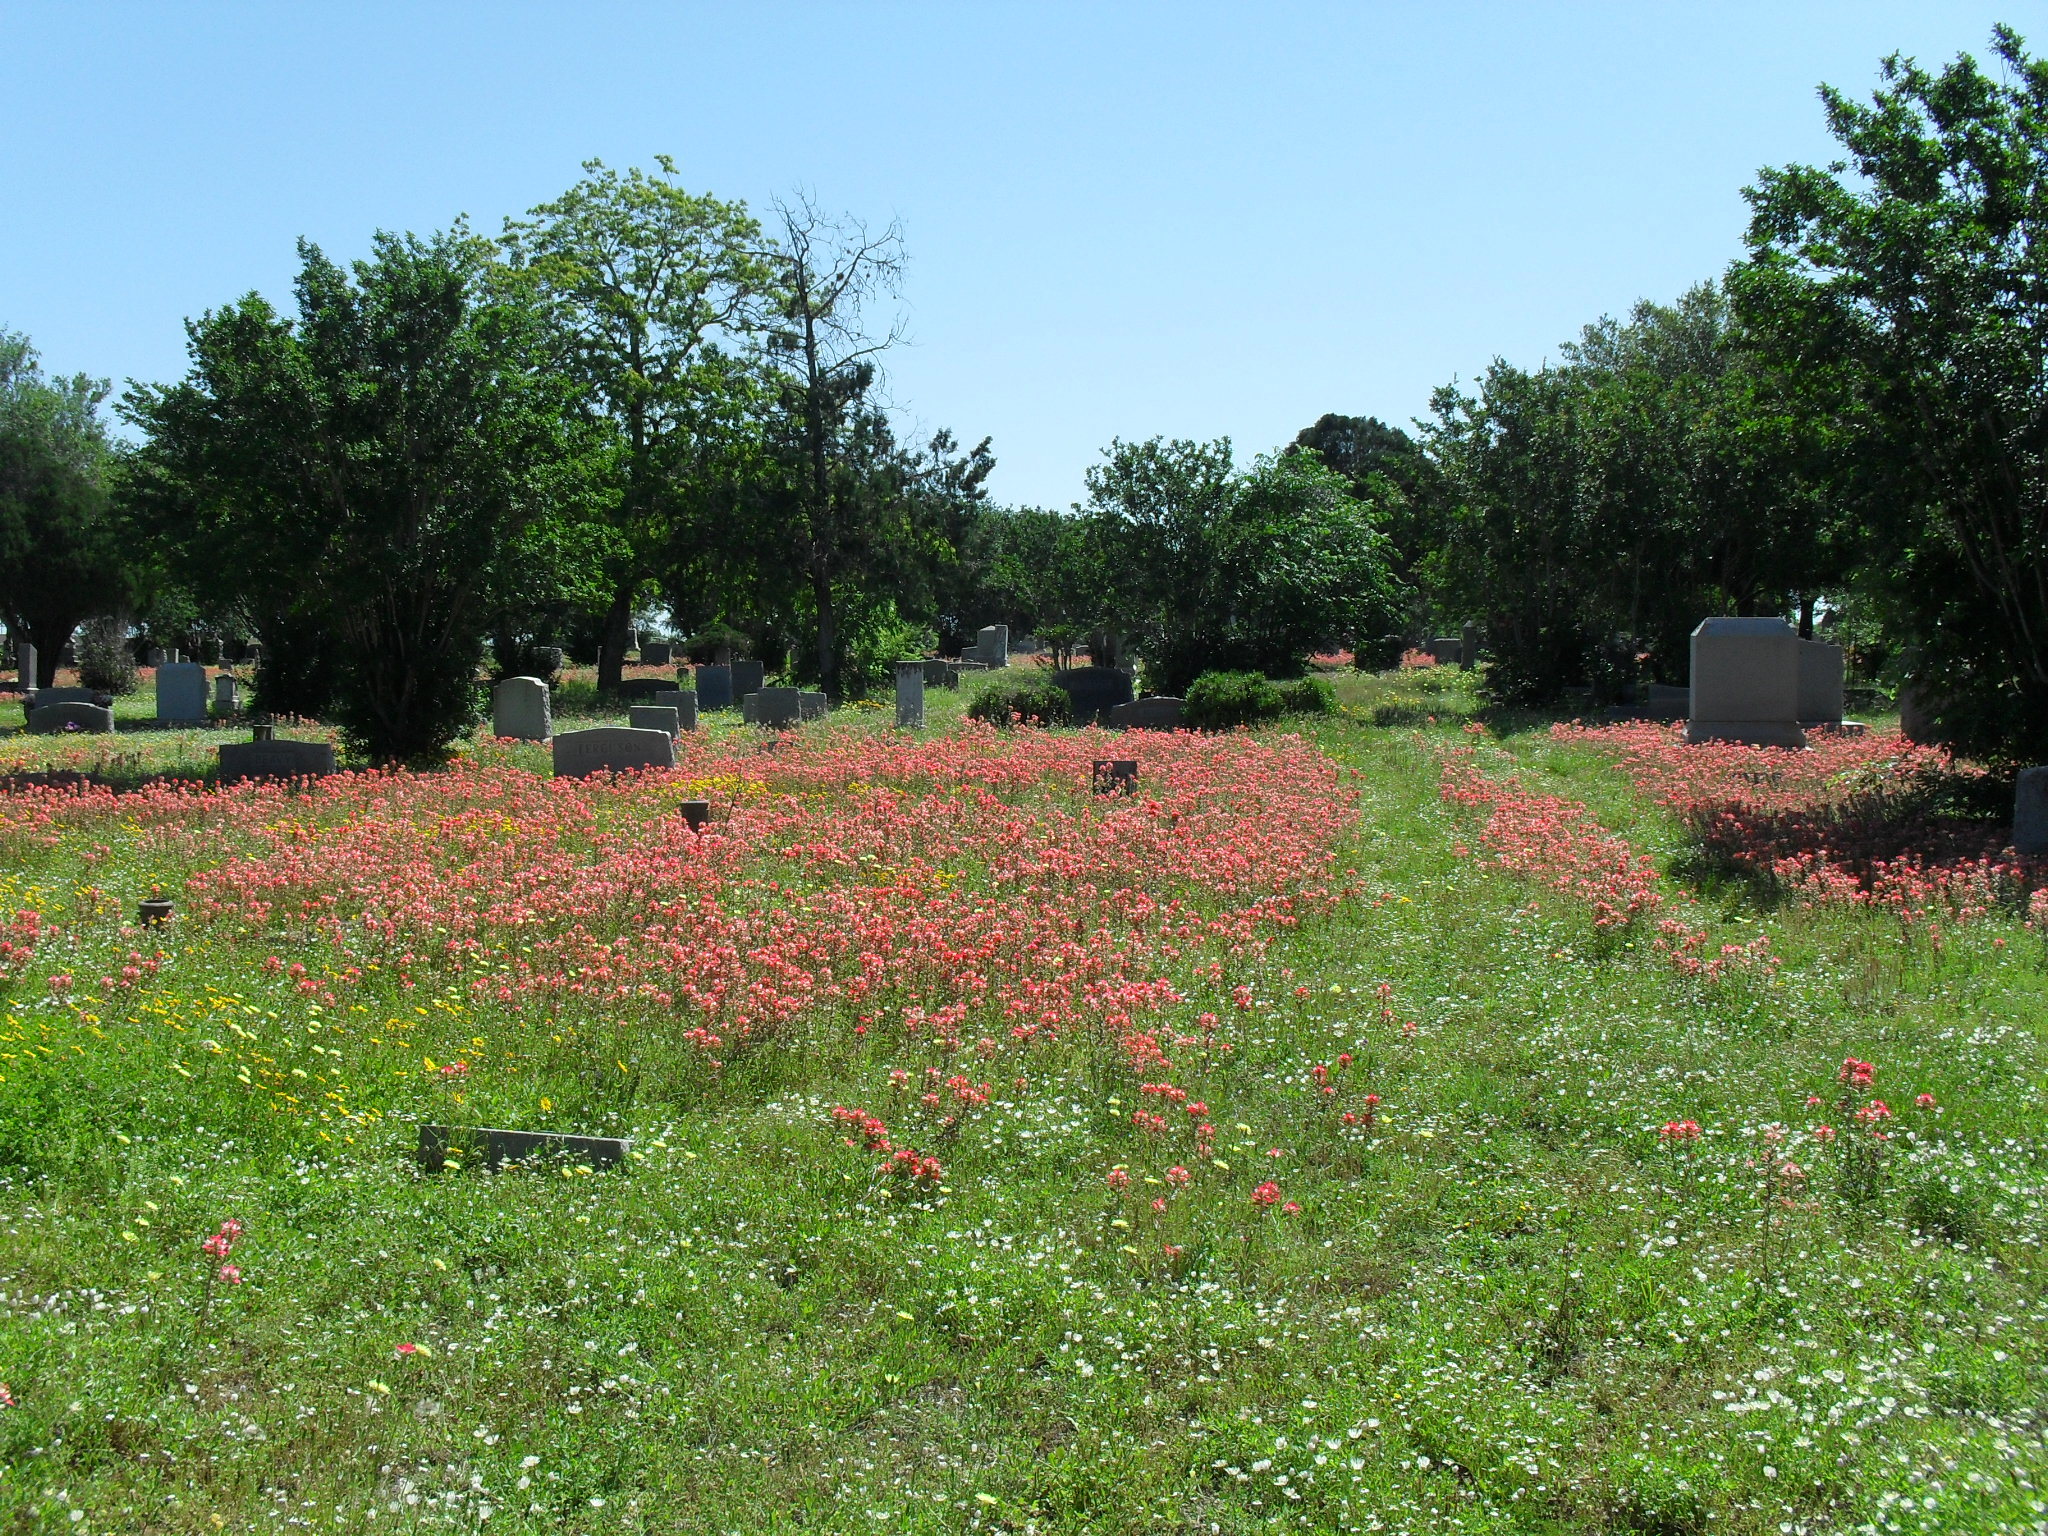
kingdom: Plantae
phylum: Tracheophyta
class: Magnoliopsida
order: Lamiales
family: Orobanchaceae
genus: Castilleja
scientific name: Castilleja indivisa
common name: Texas paintbrush
